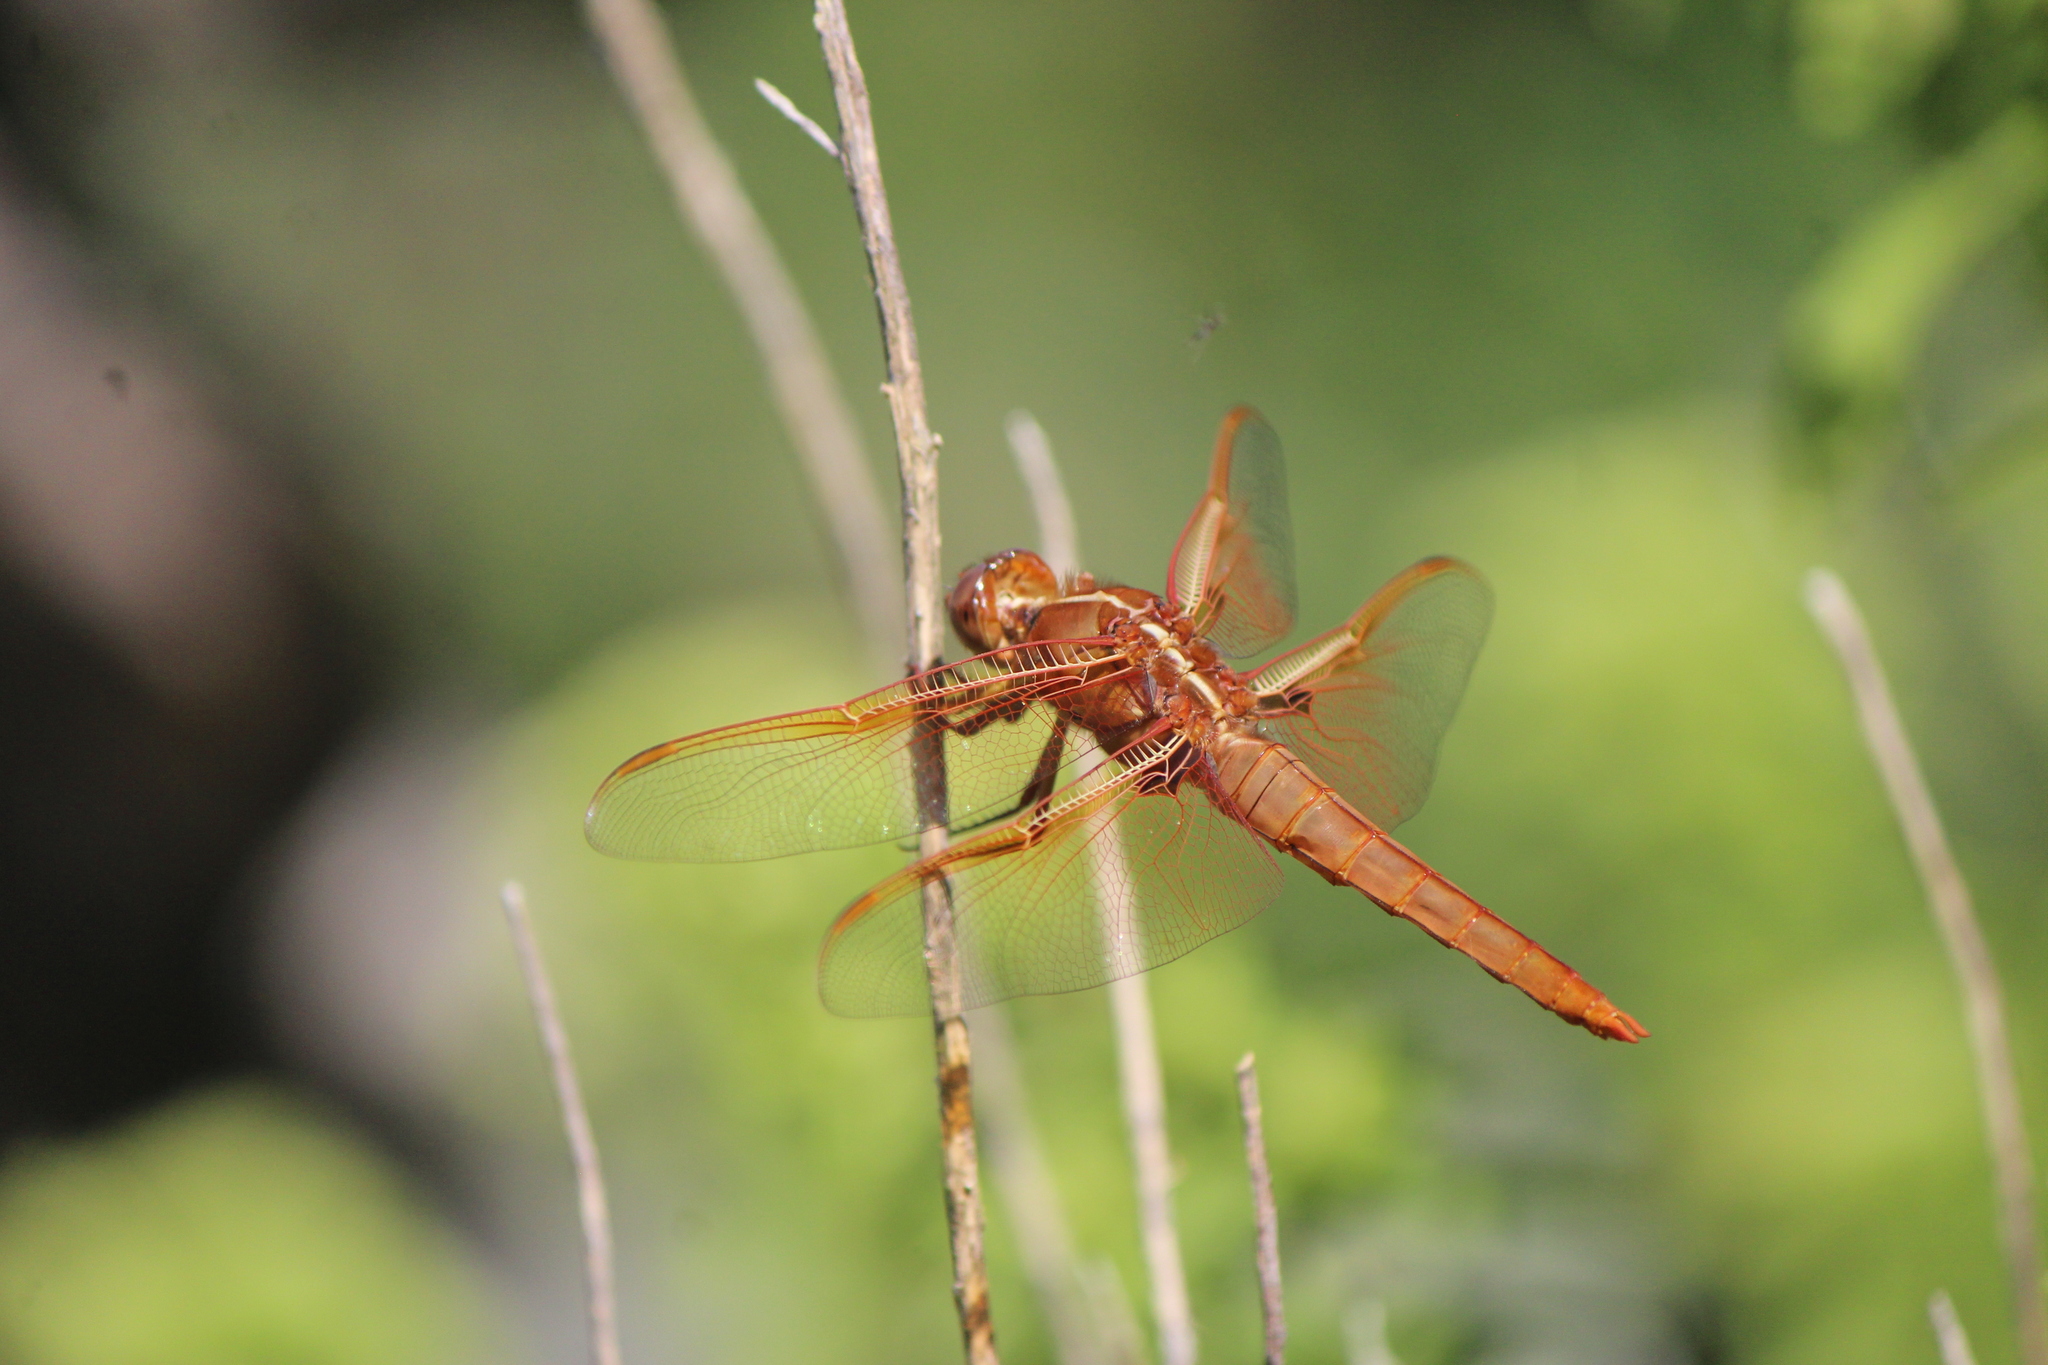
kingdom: Animalia
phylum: Arthropoda
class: Insecta
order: Odonata
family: Libellulidae
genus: Libellula
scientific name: Libellula saturata
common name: Flame skimmer
